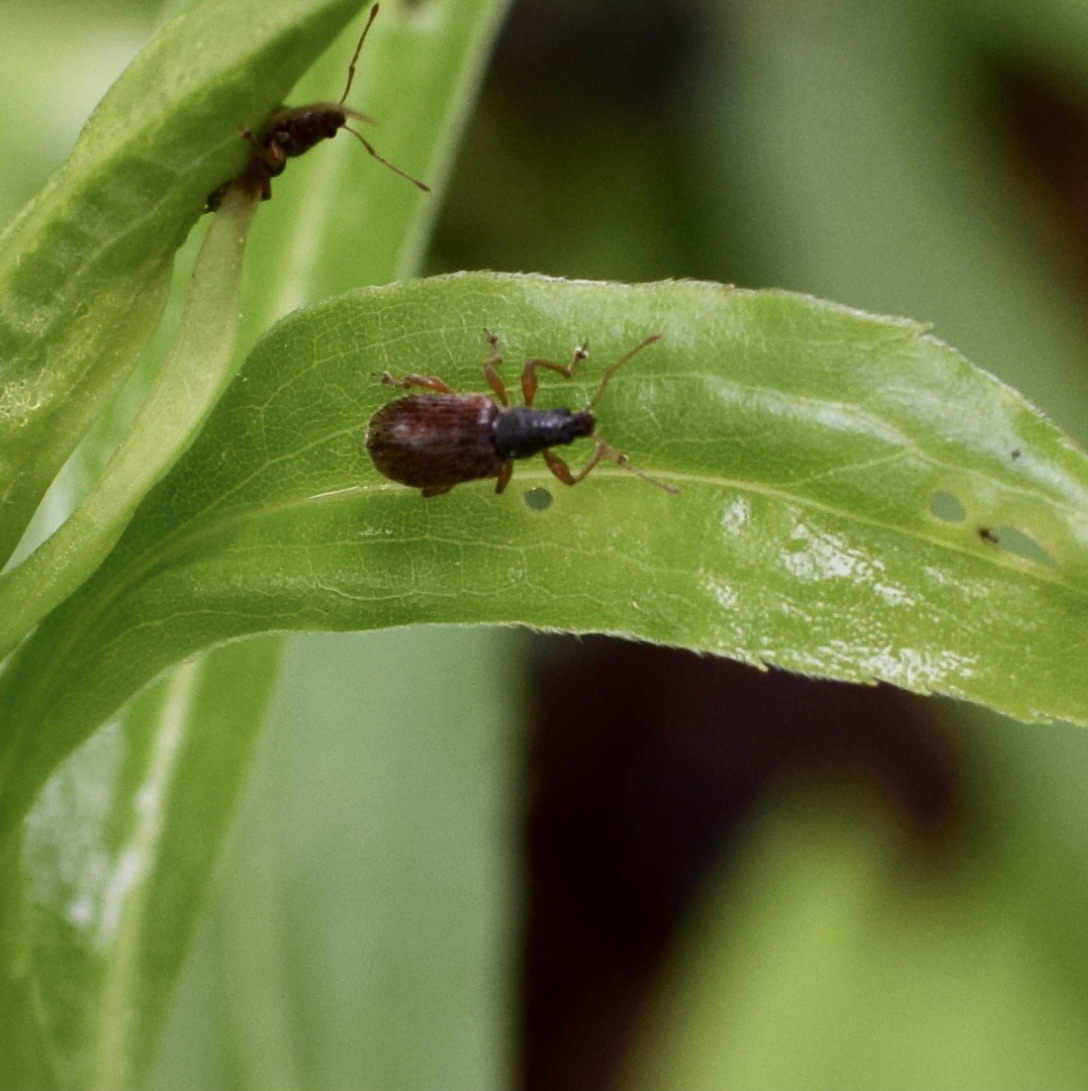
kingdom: Animalia
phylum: Arthropoda
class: Insecta
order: Coleoptera
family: Curculionidae
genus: Phyllobius
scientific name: Phyllobius oblongus
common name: Brown leaf weevil
